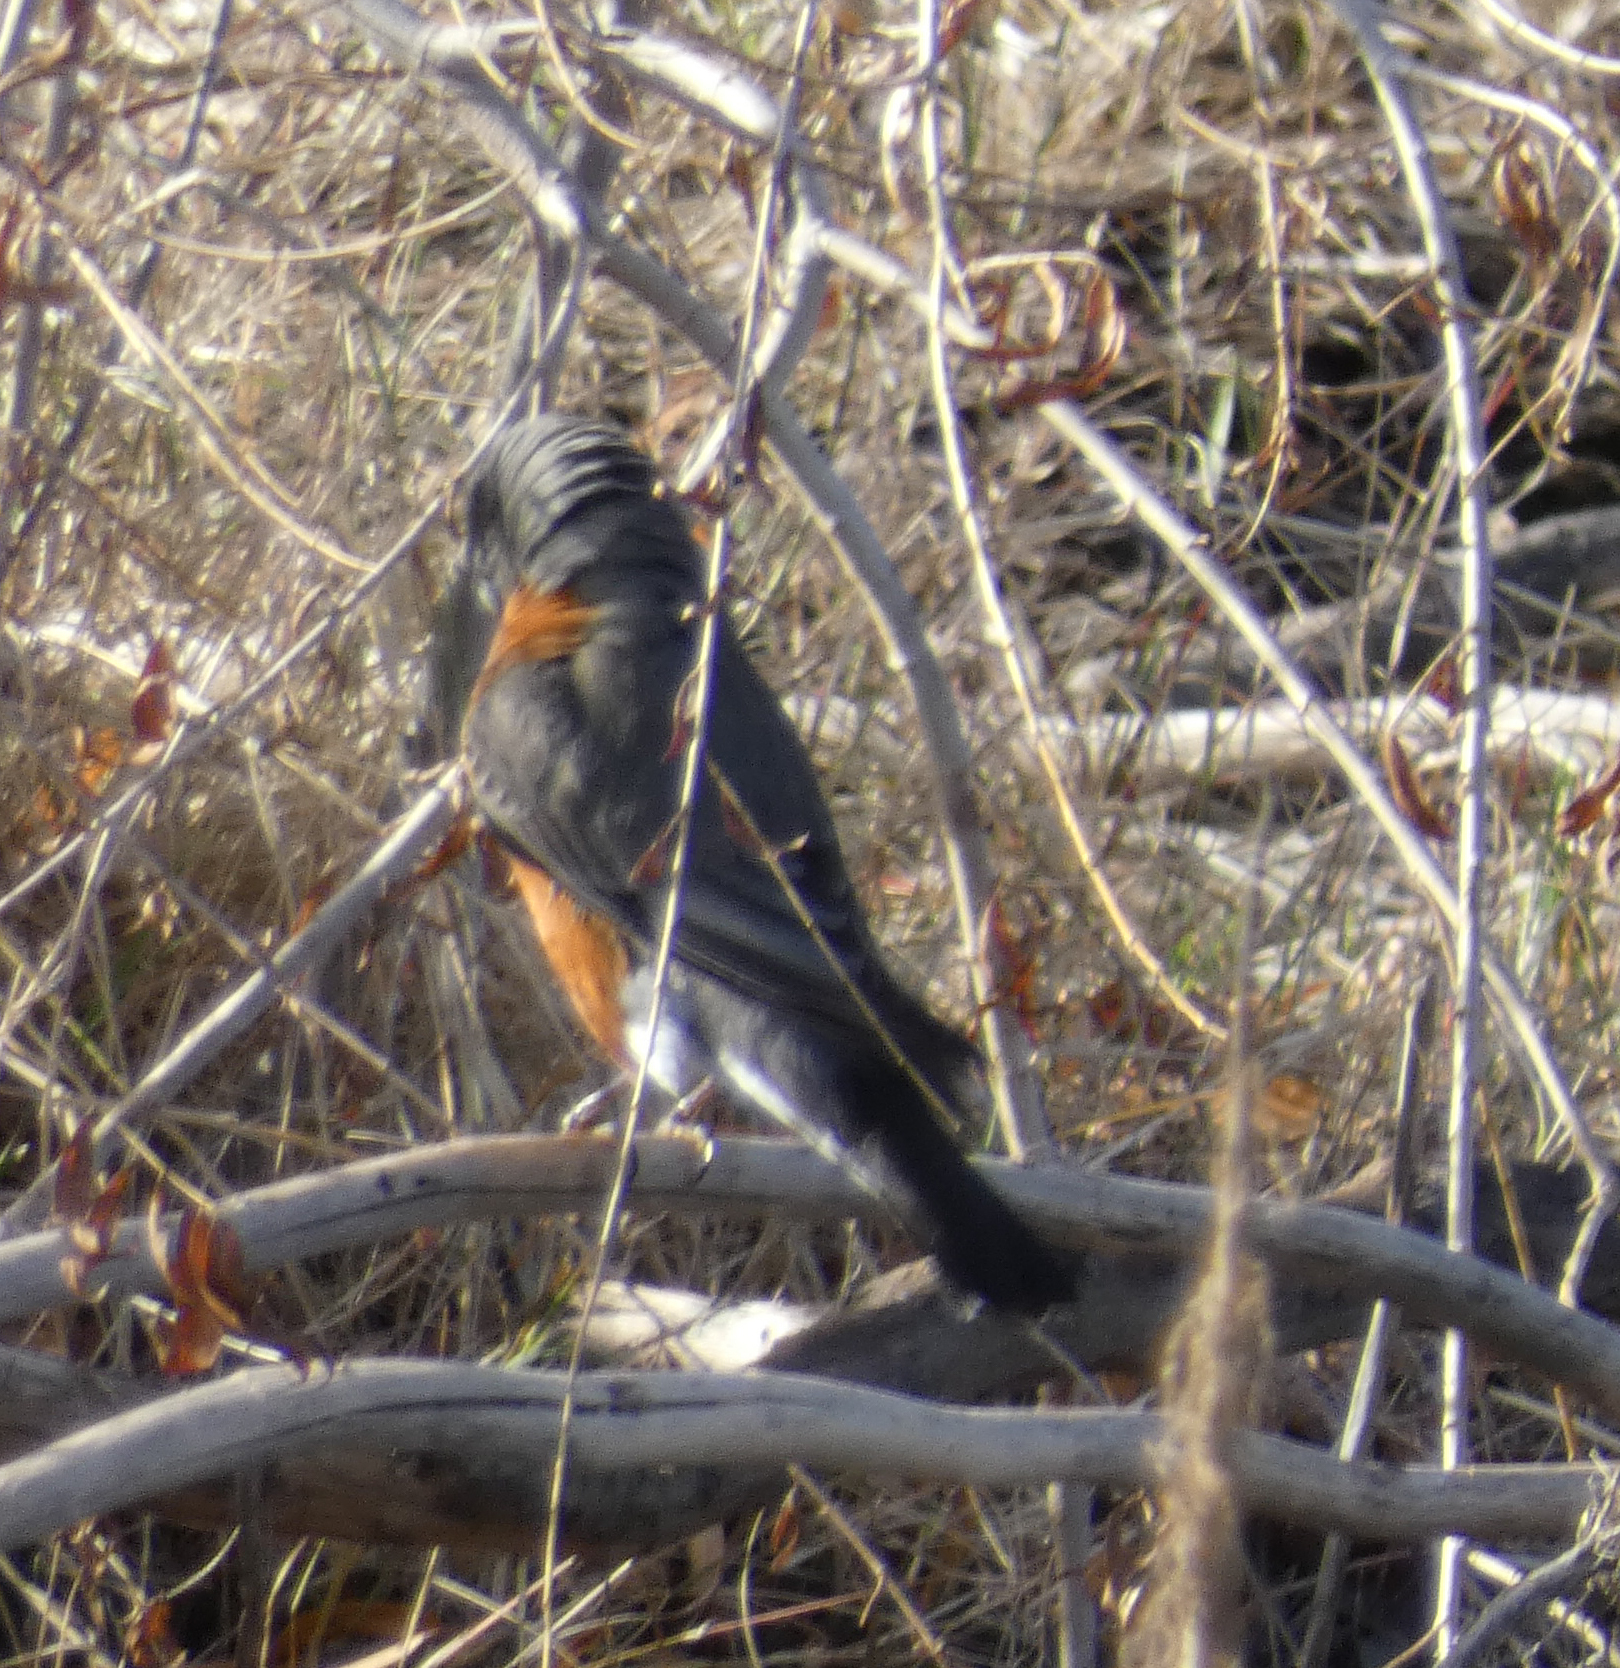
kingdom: Animalia
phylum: Chordata
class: Aves
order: Passeriformes
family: Turdidae
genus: Turdus
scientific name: Turdus migratorius
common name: American robin
